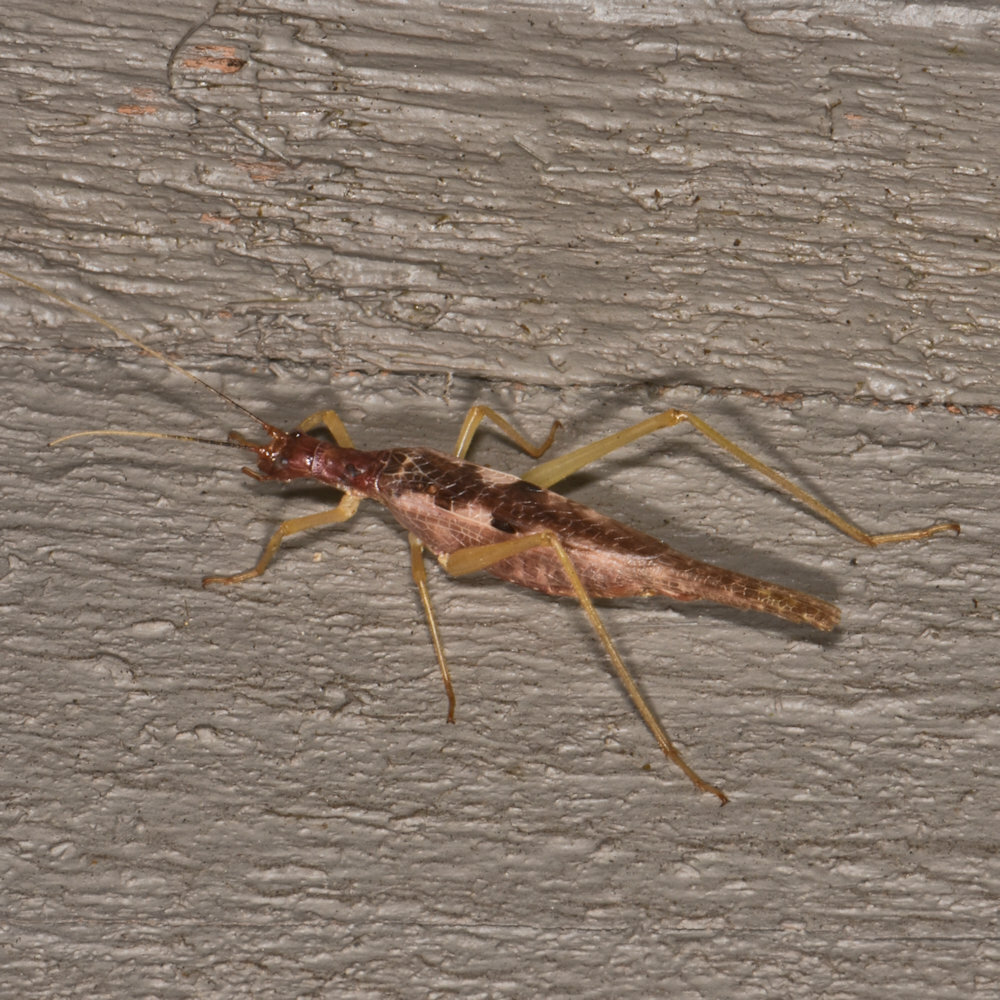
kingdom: Animalia
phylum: Arthropoda
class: Insecta
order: Orthoptera
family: Gryllidae
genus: Neoxabea
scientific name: Neoxabea bipunctata
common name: Two-spotted tree cricket
